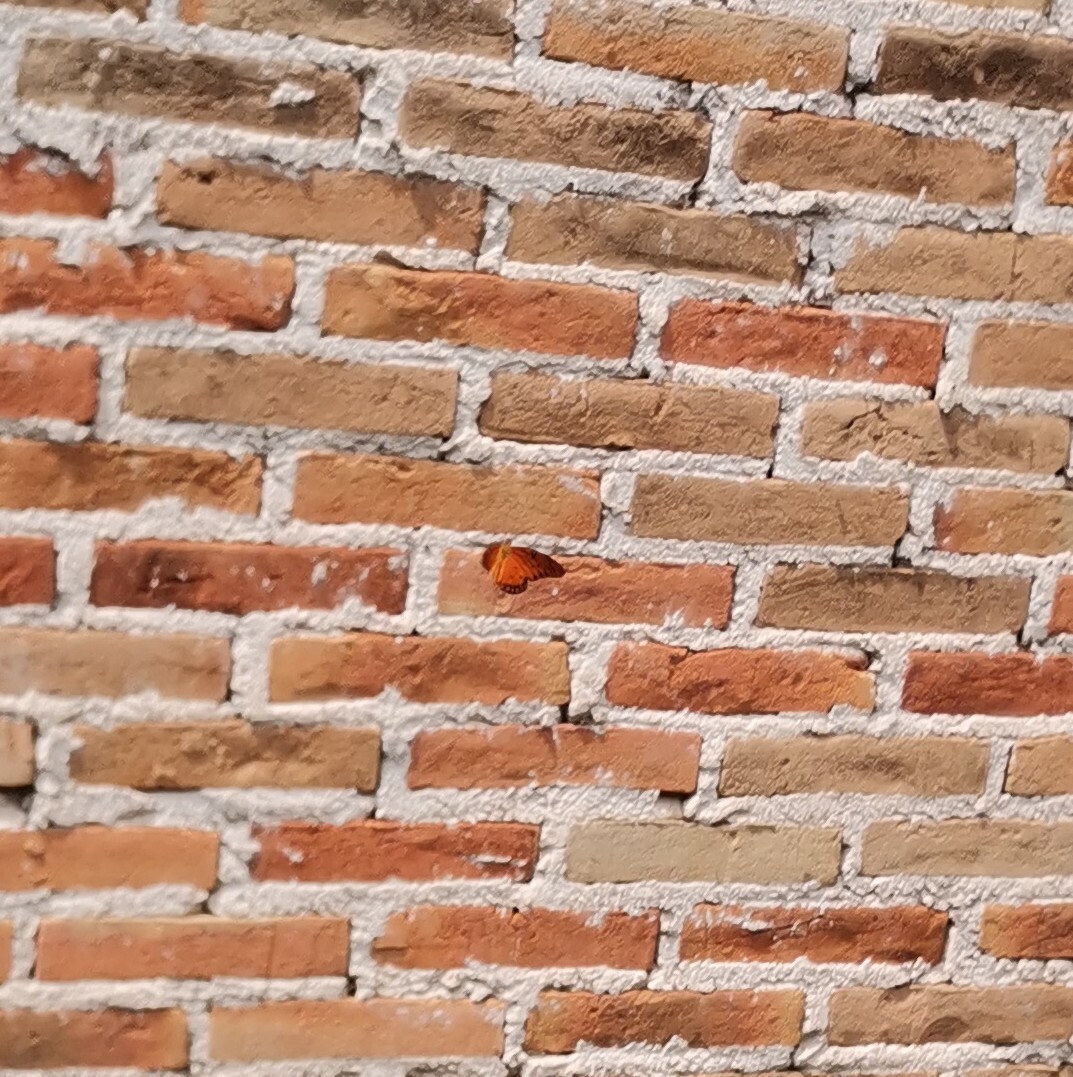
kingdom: Animalia
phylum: Arthropoda
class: Insecta
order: Lepidoptera
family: Nymphalidae
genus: Dione
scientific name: Dione vanillae
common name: Gulf fritillary
